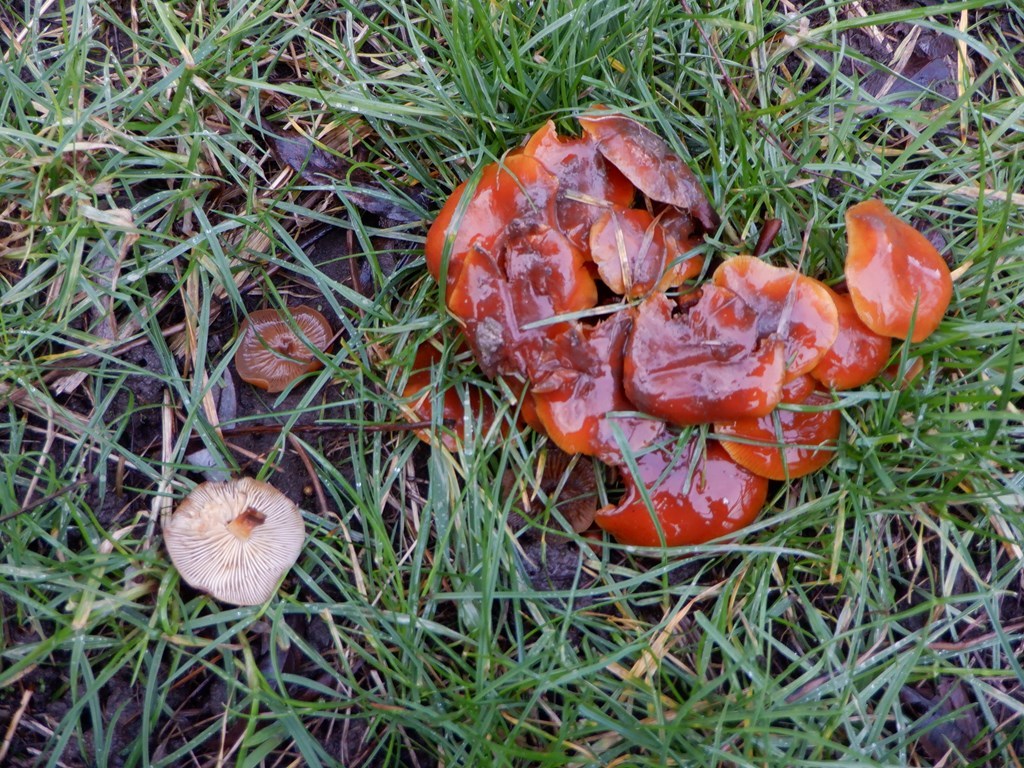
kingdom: Fungi
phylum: Basidiomycota
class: Agaricomycetes
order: Agaricales
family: Physalacriaceae
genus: Flammulina
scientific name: Flammulina
